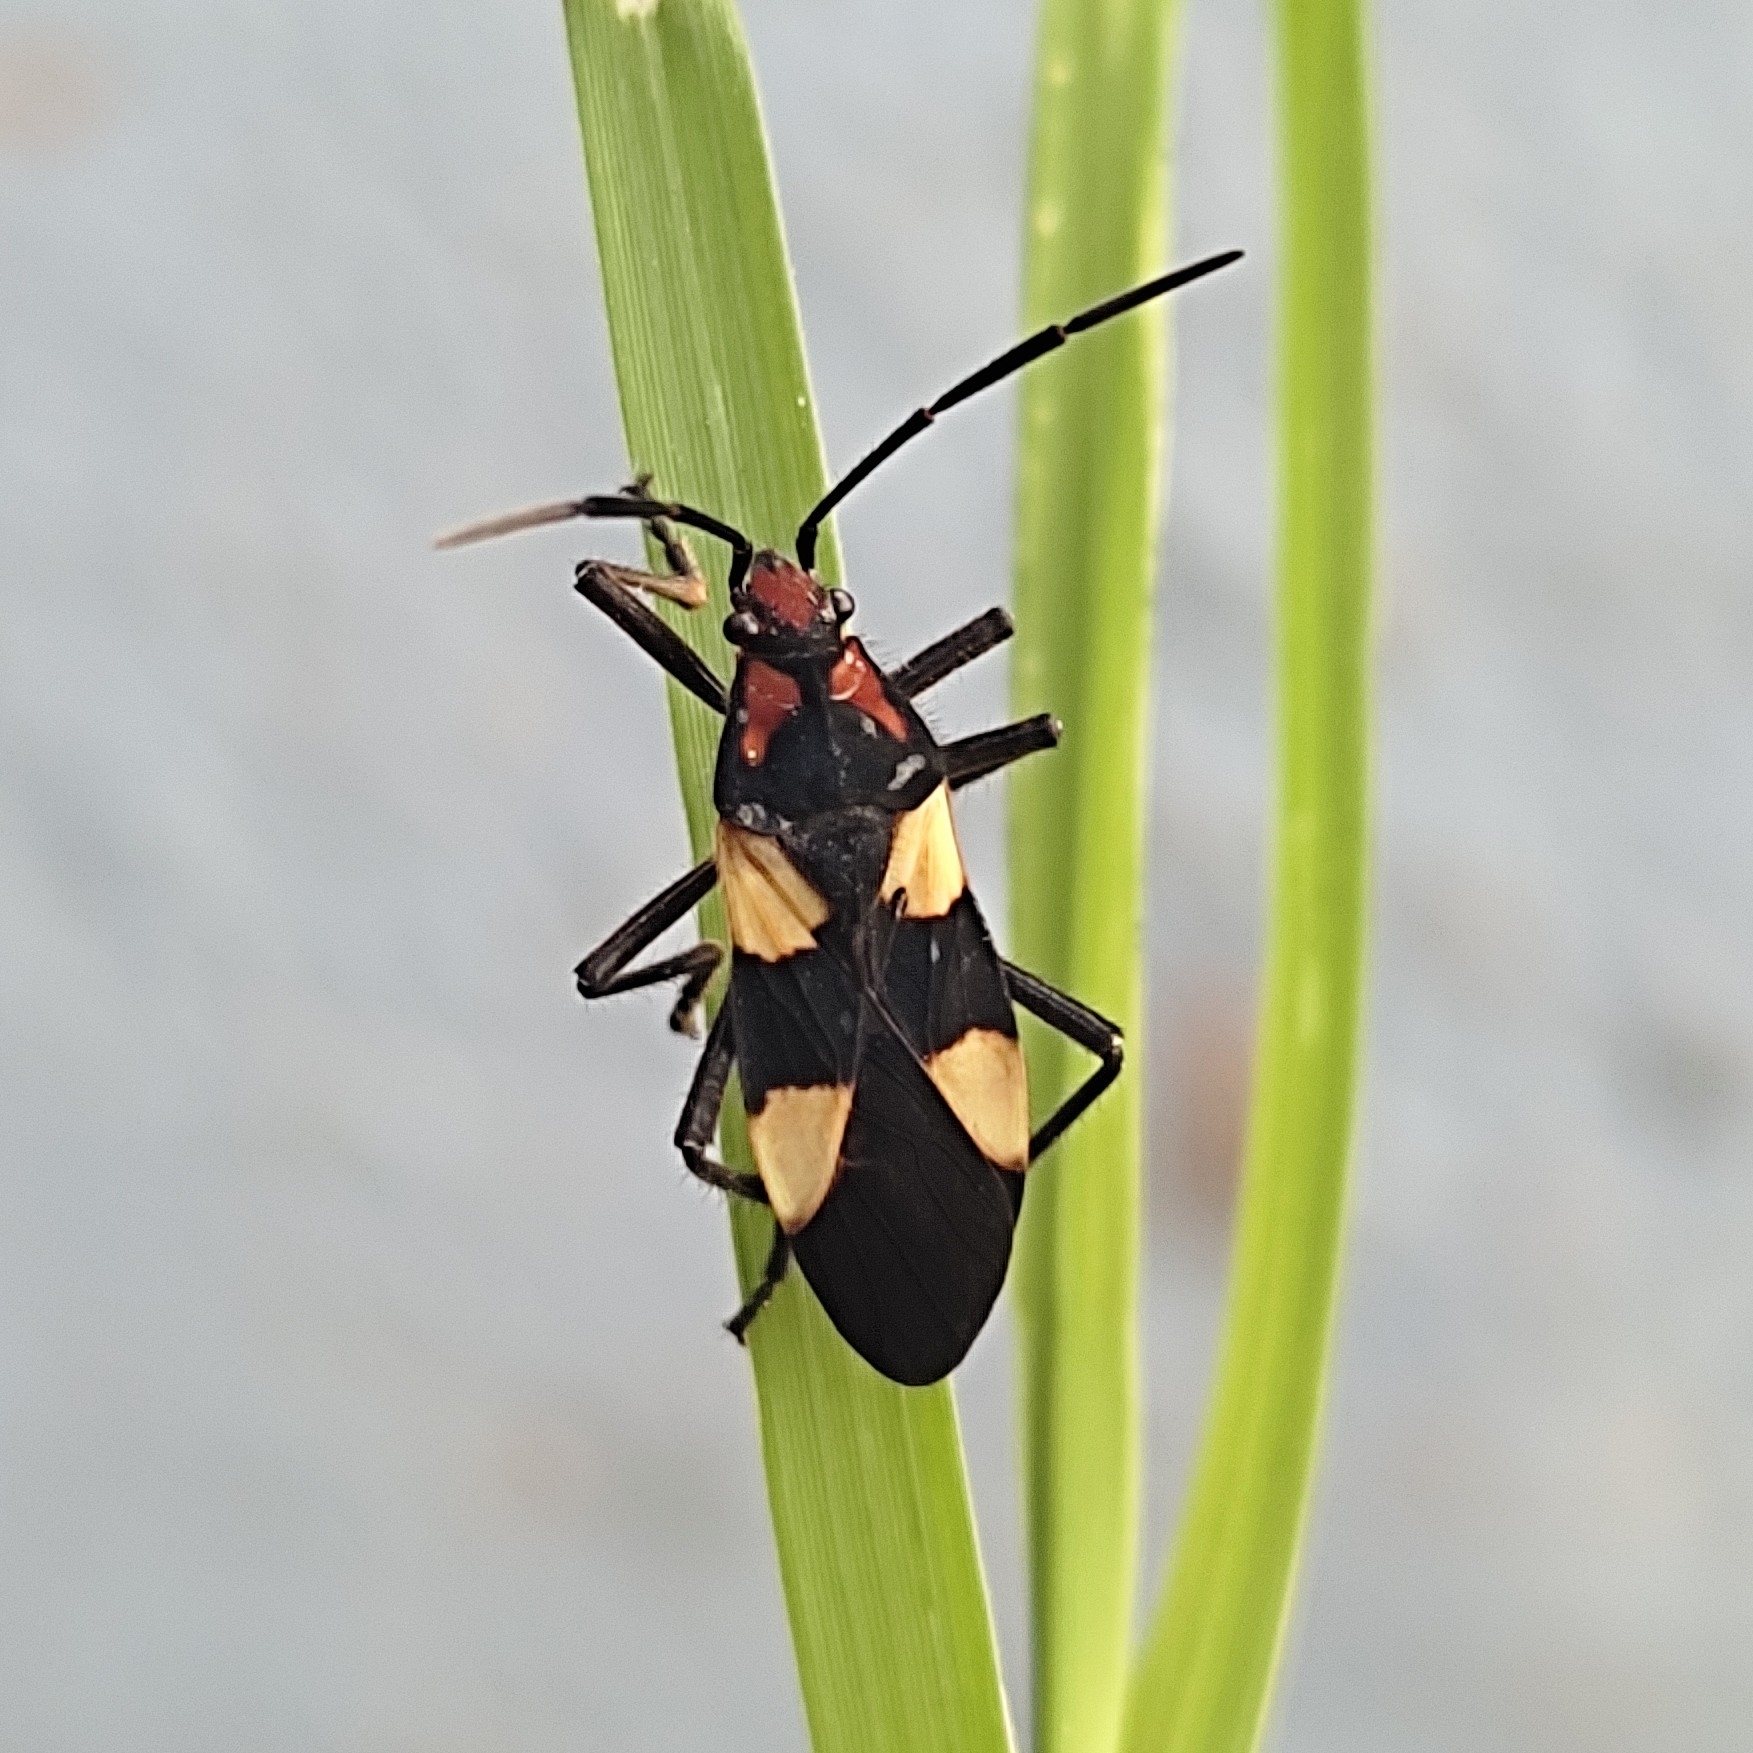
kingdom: Animalia
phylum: Arthropoda
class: Insecta
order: Hemiptera
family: Lygaeidae
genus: Oncopeltus
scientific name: Oncopeltus varicolor
